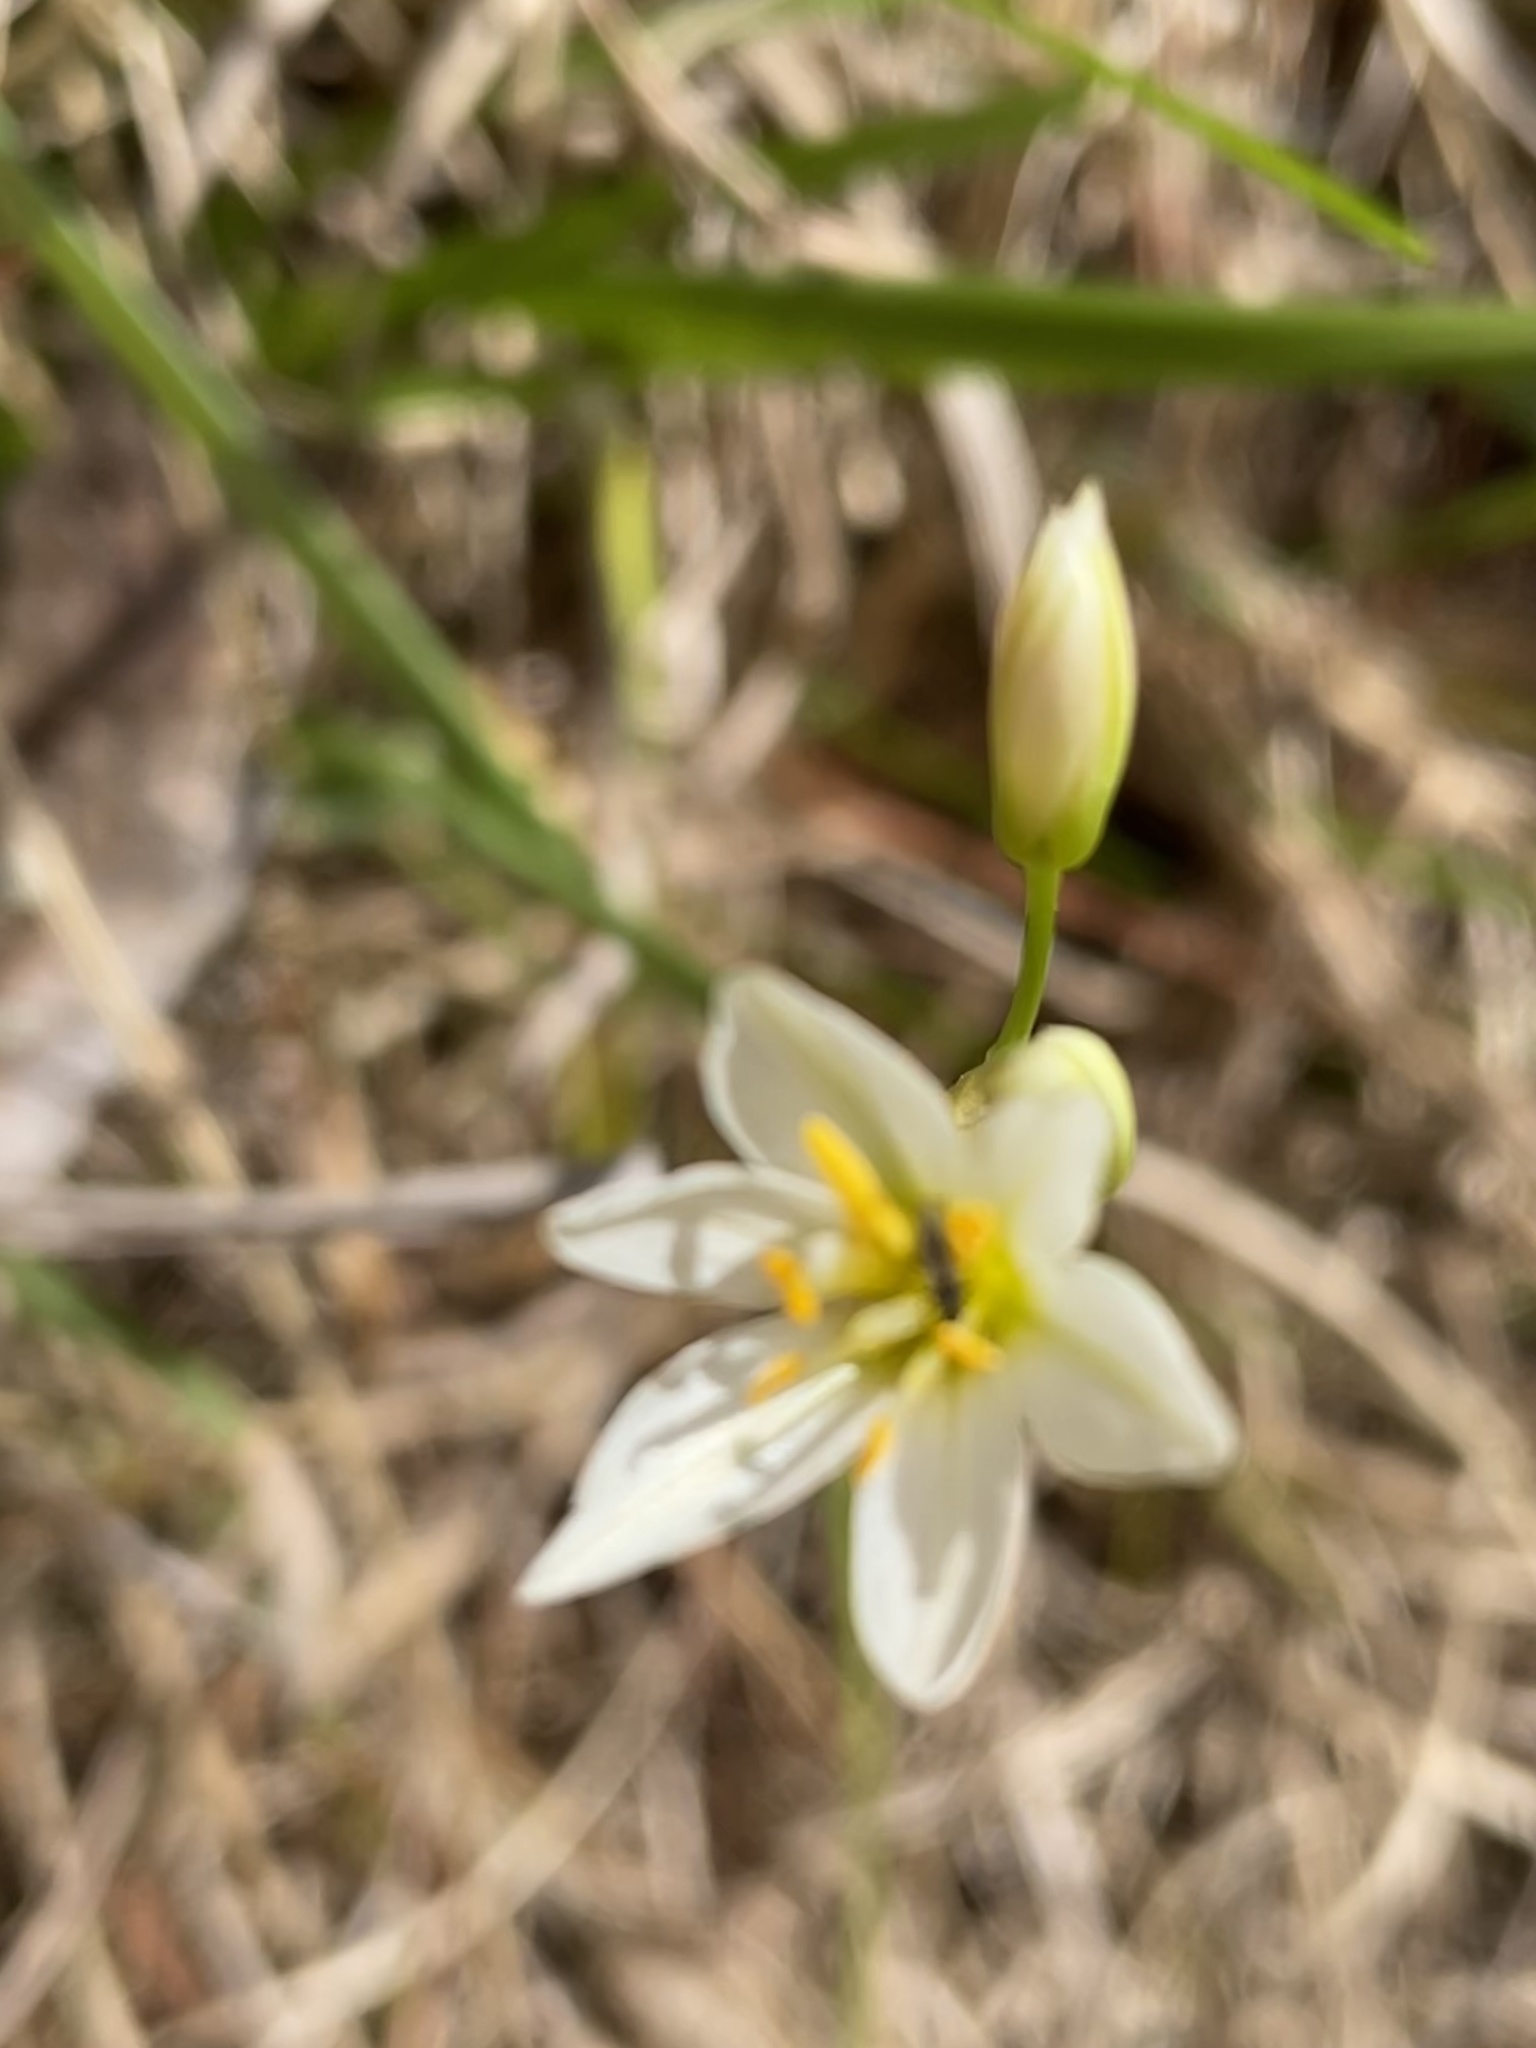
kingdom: Plantae
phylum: Tracheophyta
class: Liliopsida
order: Asparagales
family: Amaryllidaceae
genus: Nothoscordum
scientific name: Nothoscordum bivalve
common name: Crow-poison
